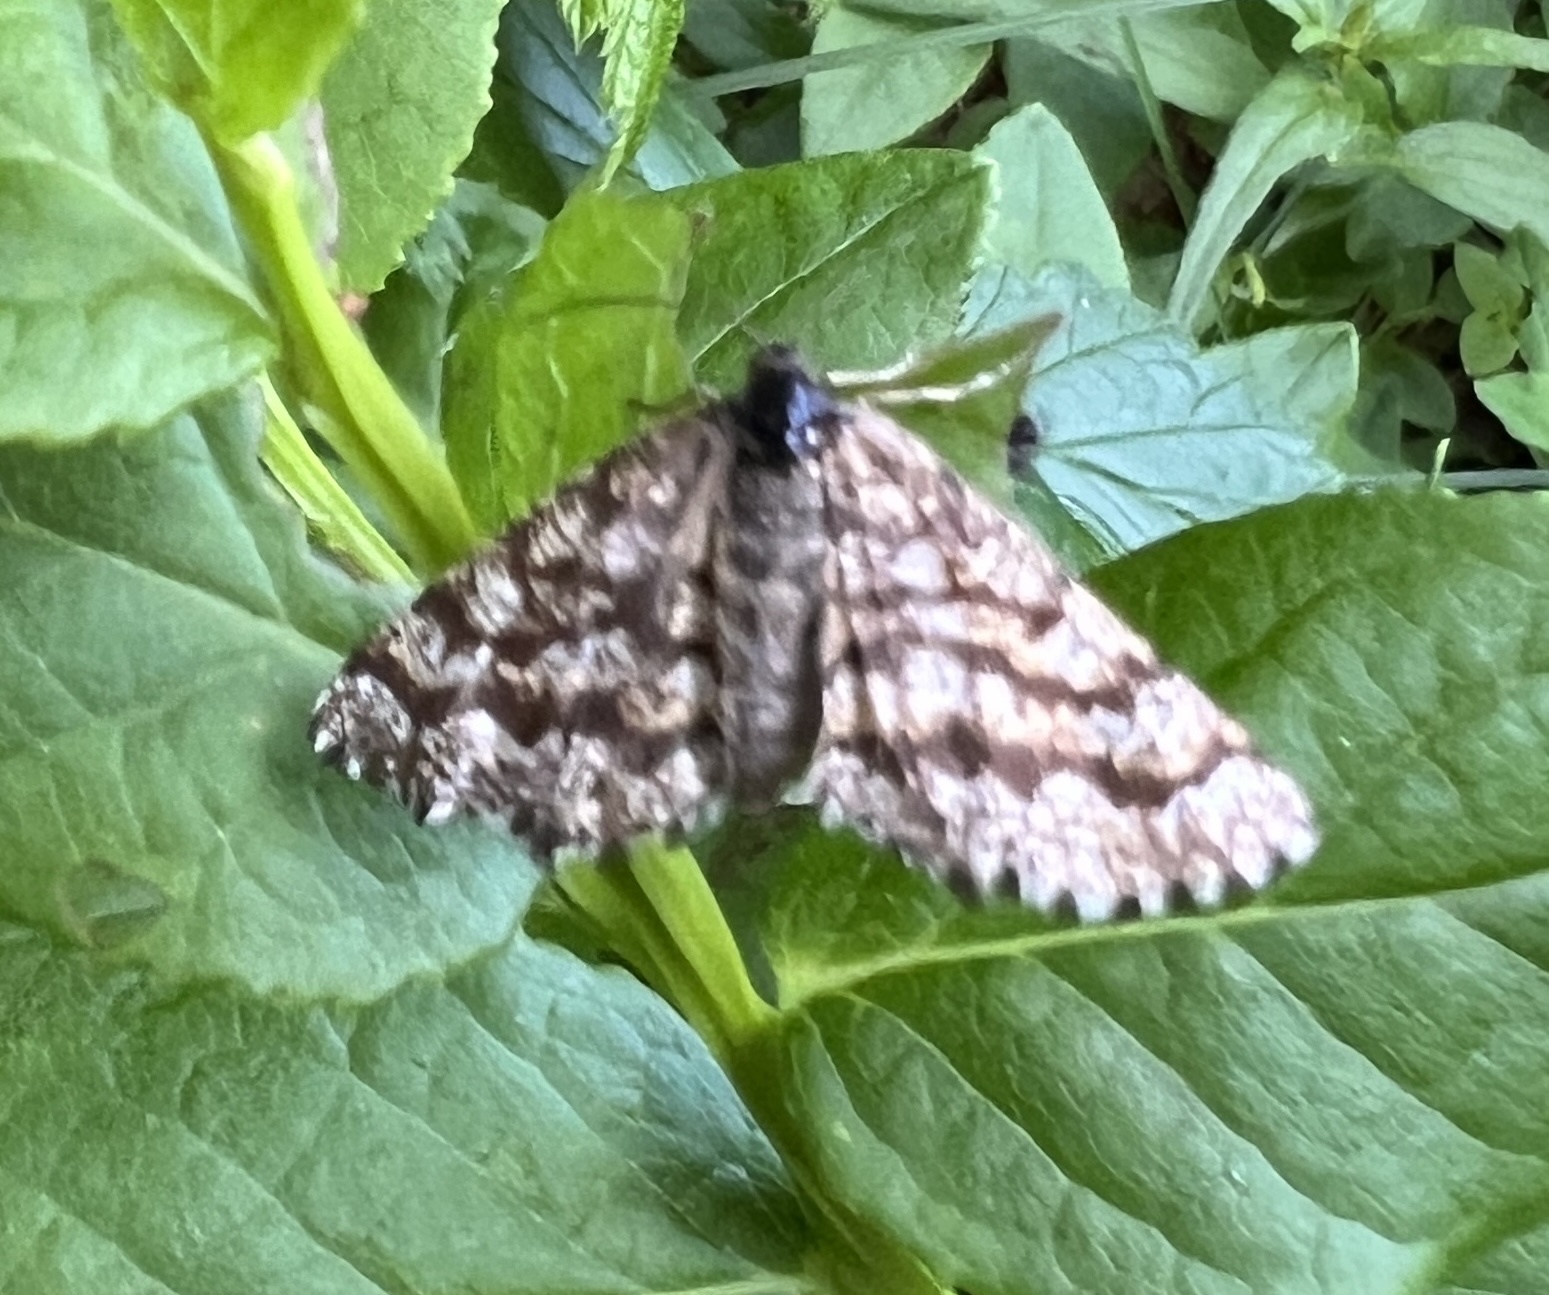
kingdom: Animalia
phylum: Arthropoda
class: Insecta
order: Lepidoptera
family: Geometridae
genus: Ematurga
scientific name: Ematurga atomaria
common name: Common heath
